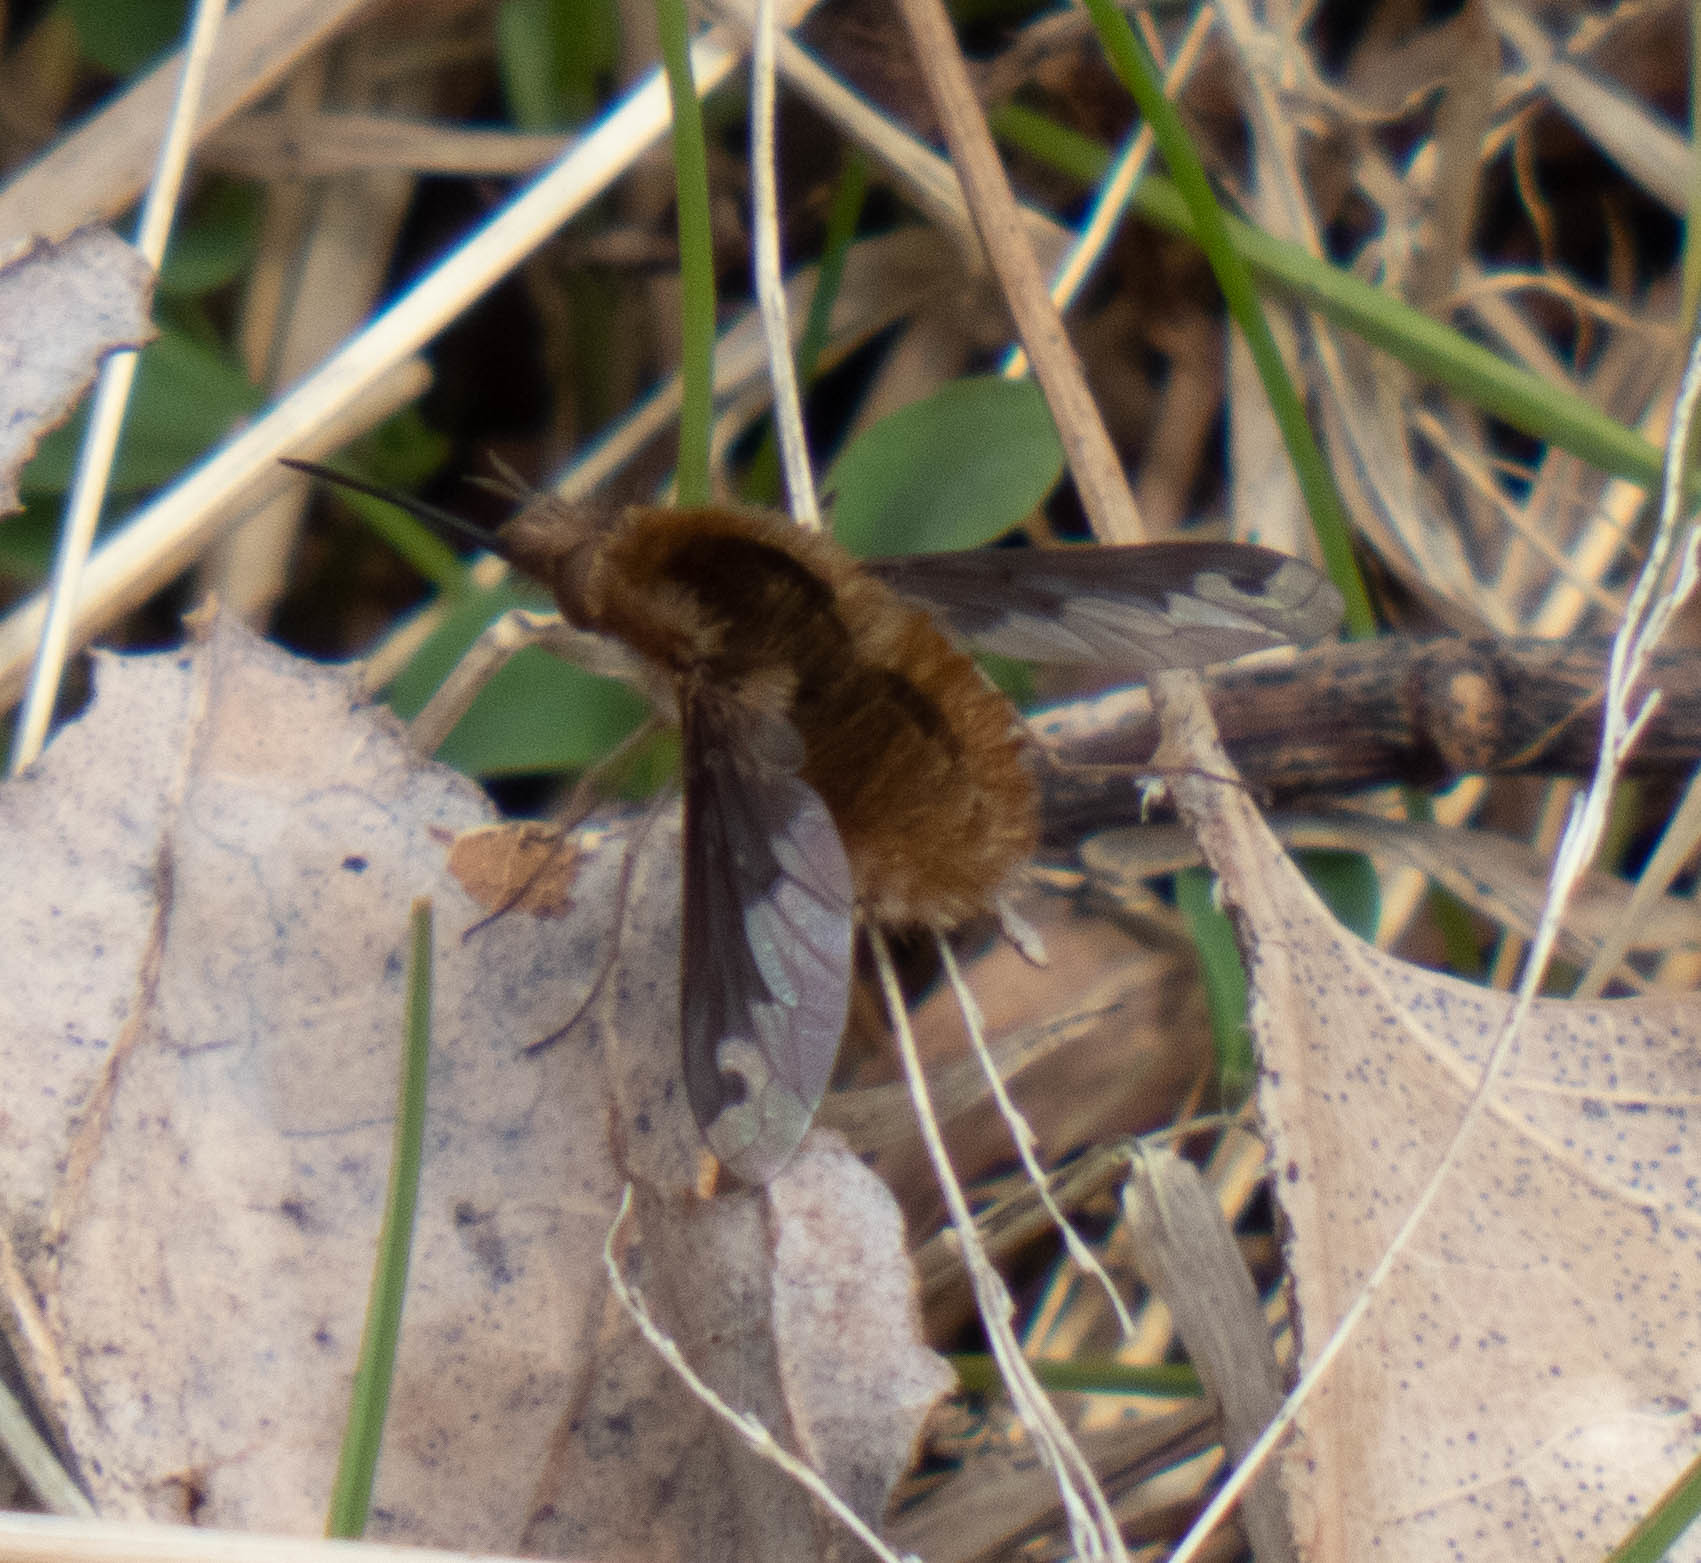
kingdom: Animalia
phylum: Arthropoda
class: Insecta
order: Diptera
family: Bombyliidae
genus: Bombylius
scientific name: Bombylius major
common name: Bee fly
